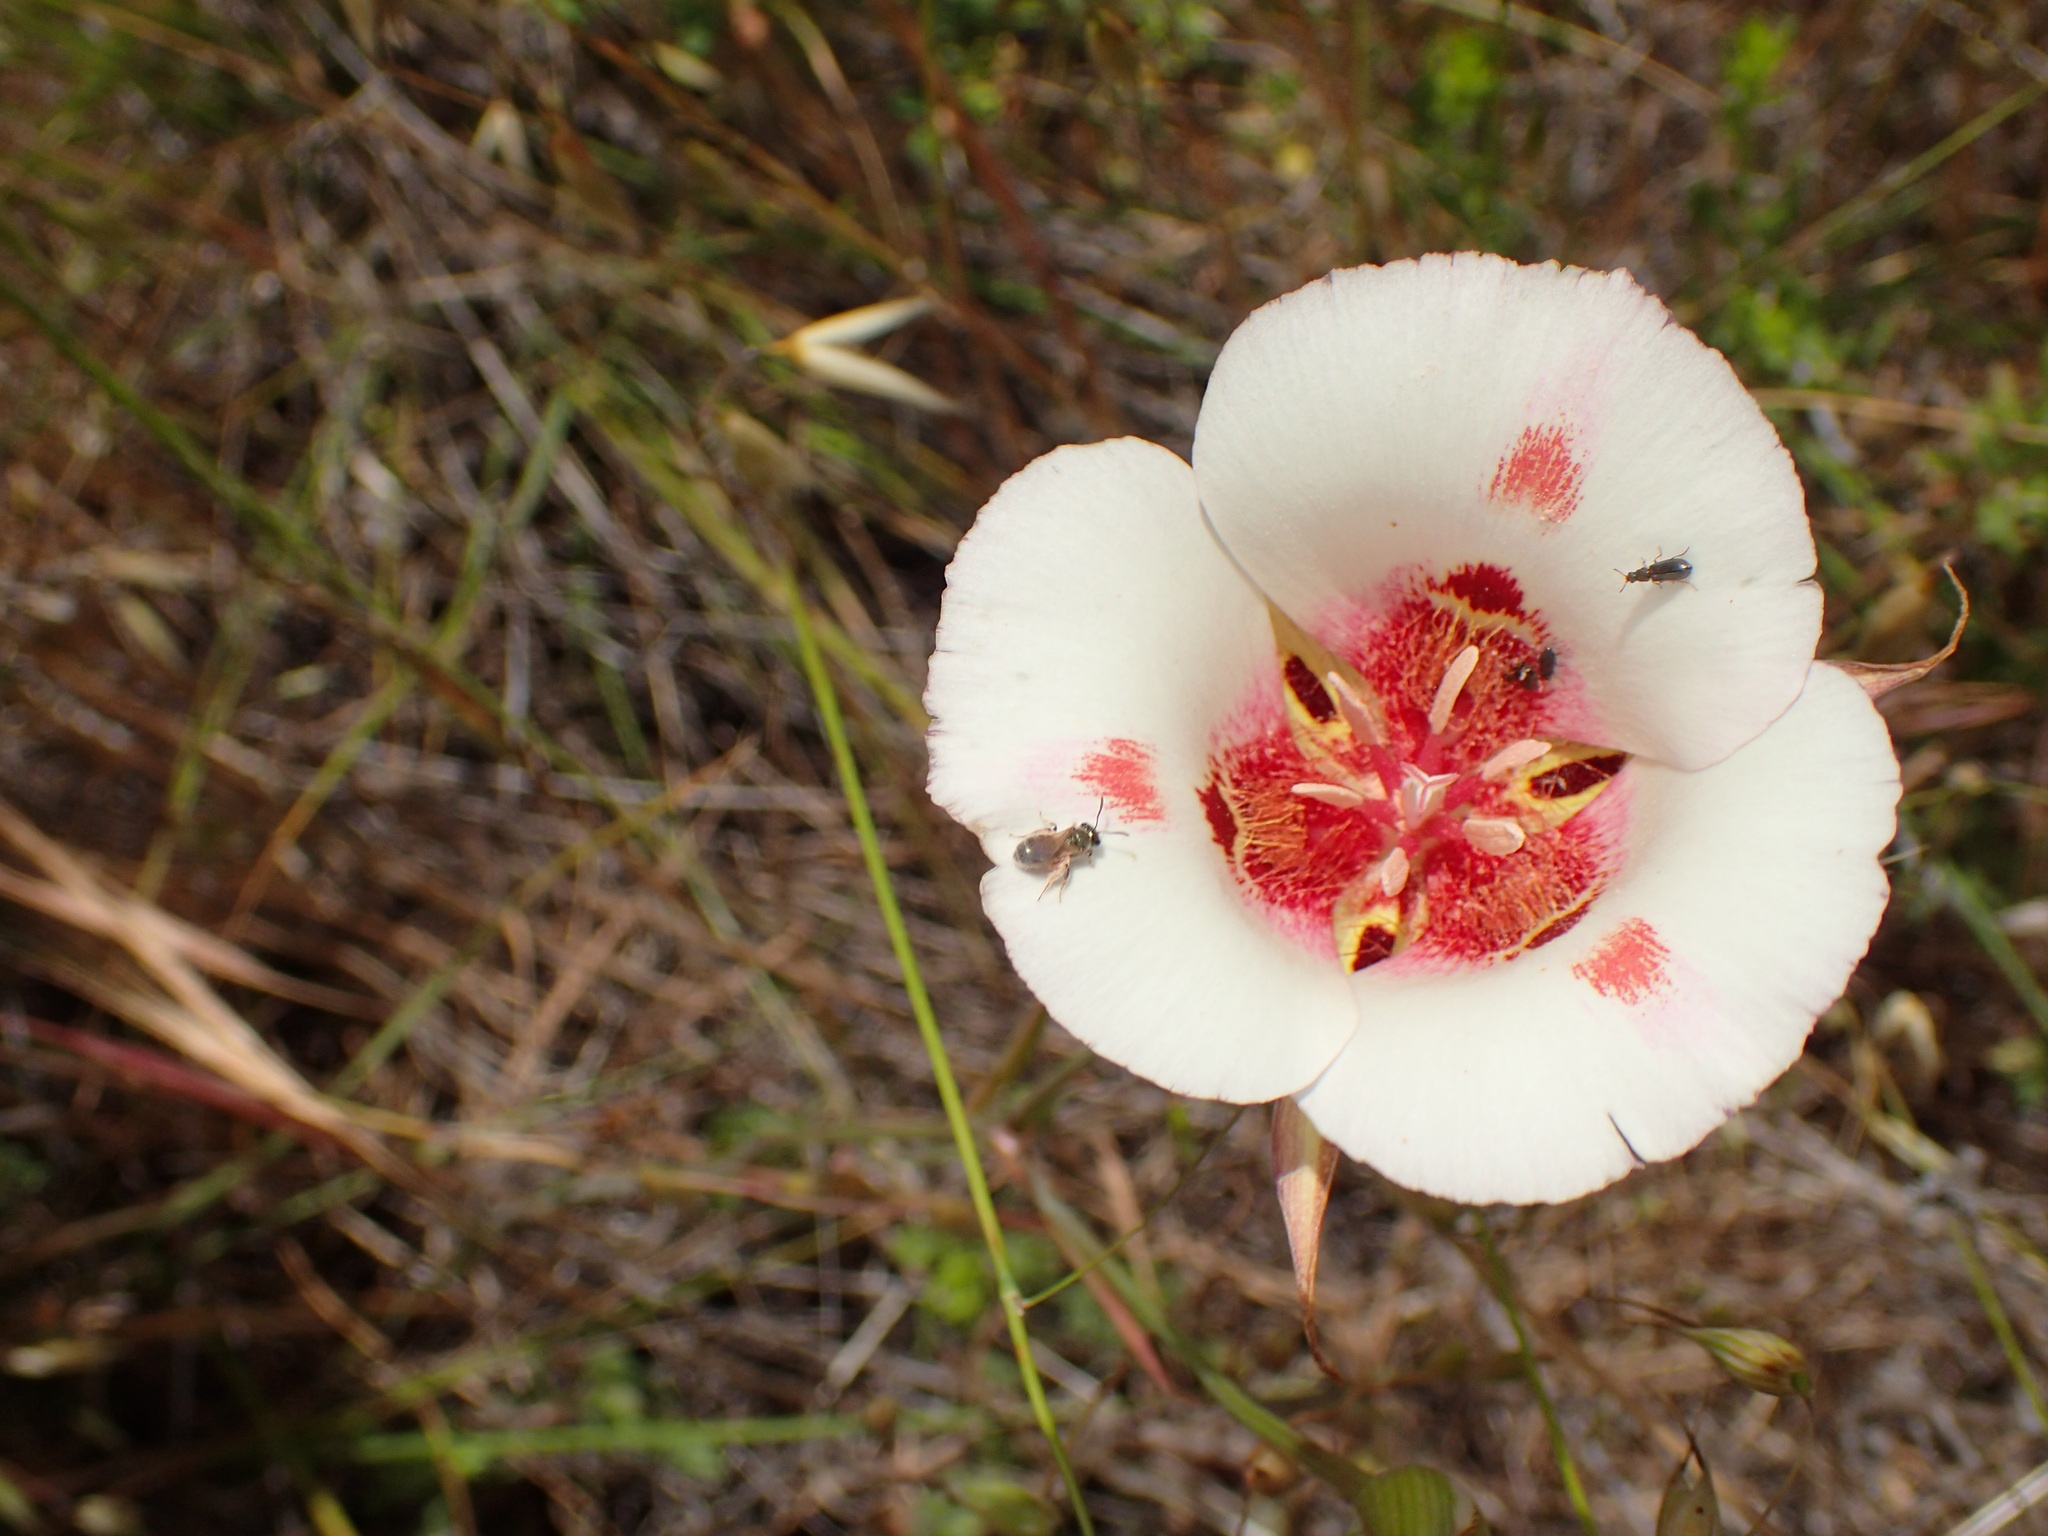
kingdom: Plantae
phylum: Tracheophyta
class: Liliopsida
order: Liliales
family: Liliaceae
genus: Calochortus
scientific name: Calochortus venustus
